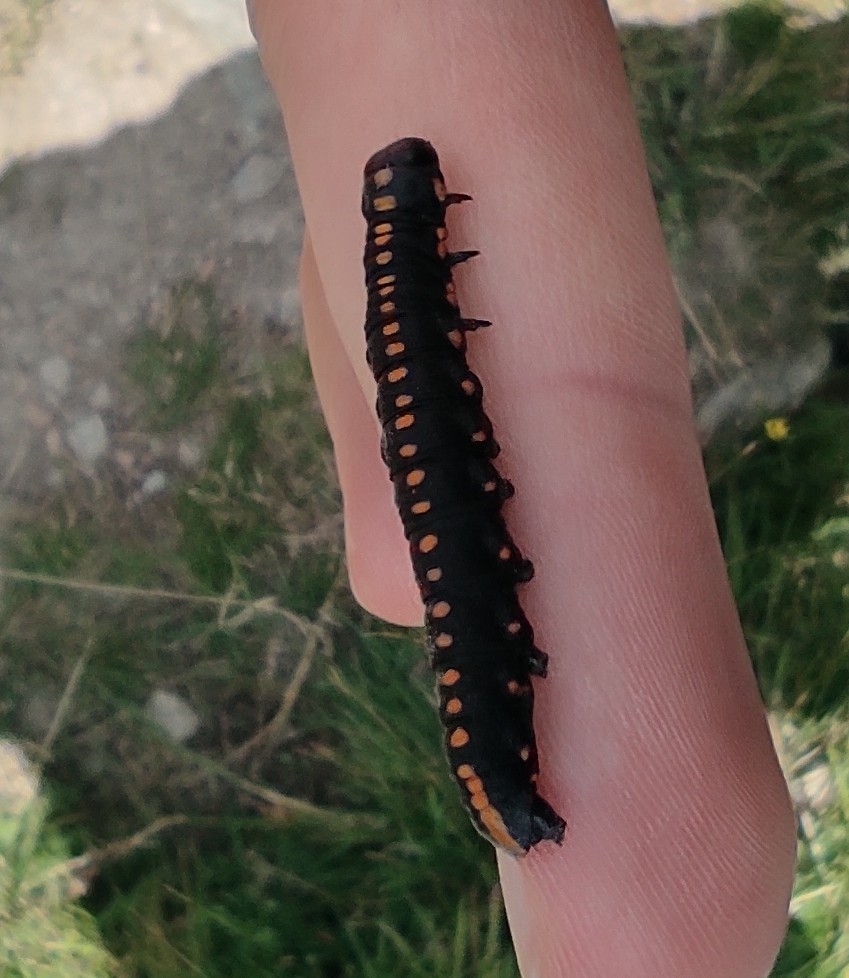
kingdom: Animalia
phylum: Arthropoda
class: Insecta
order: Lepidoptera
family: Noctuidae
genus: Cucullia
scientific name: Cucullia lucifuga
